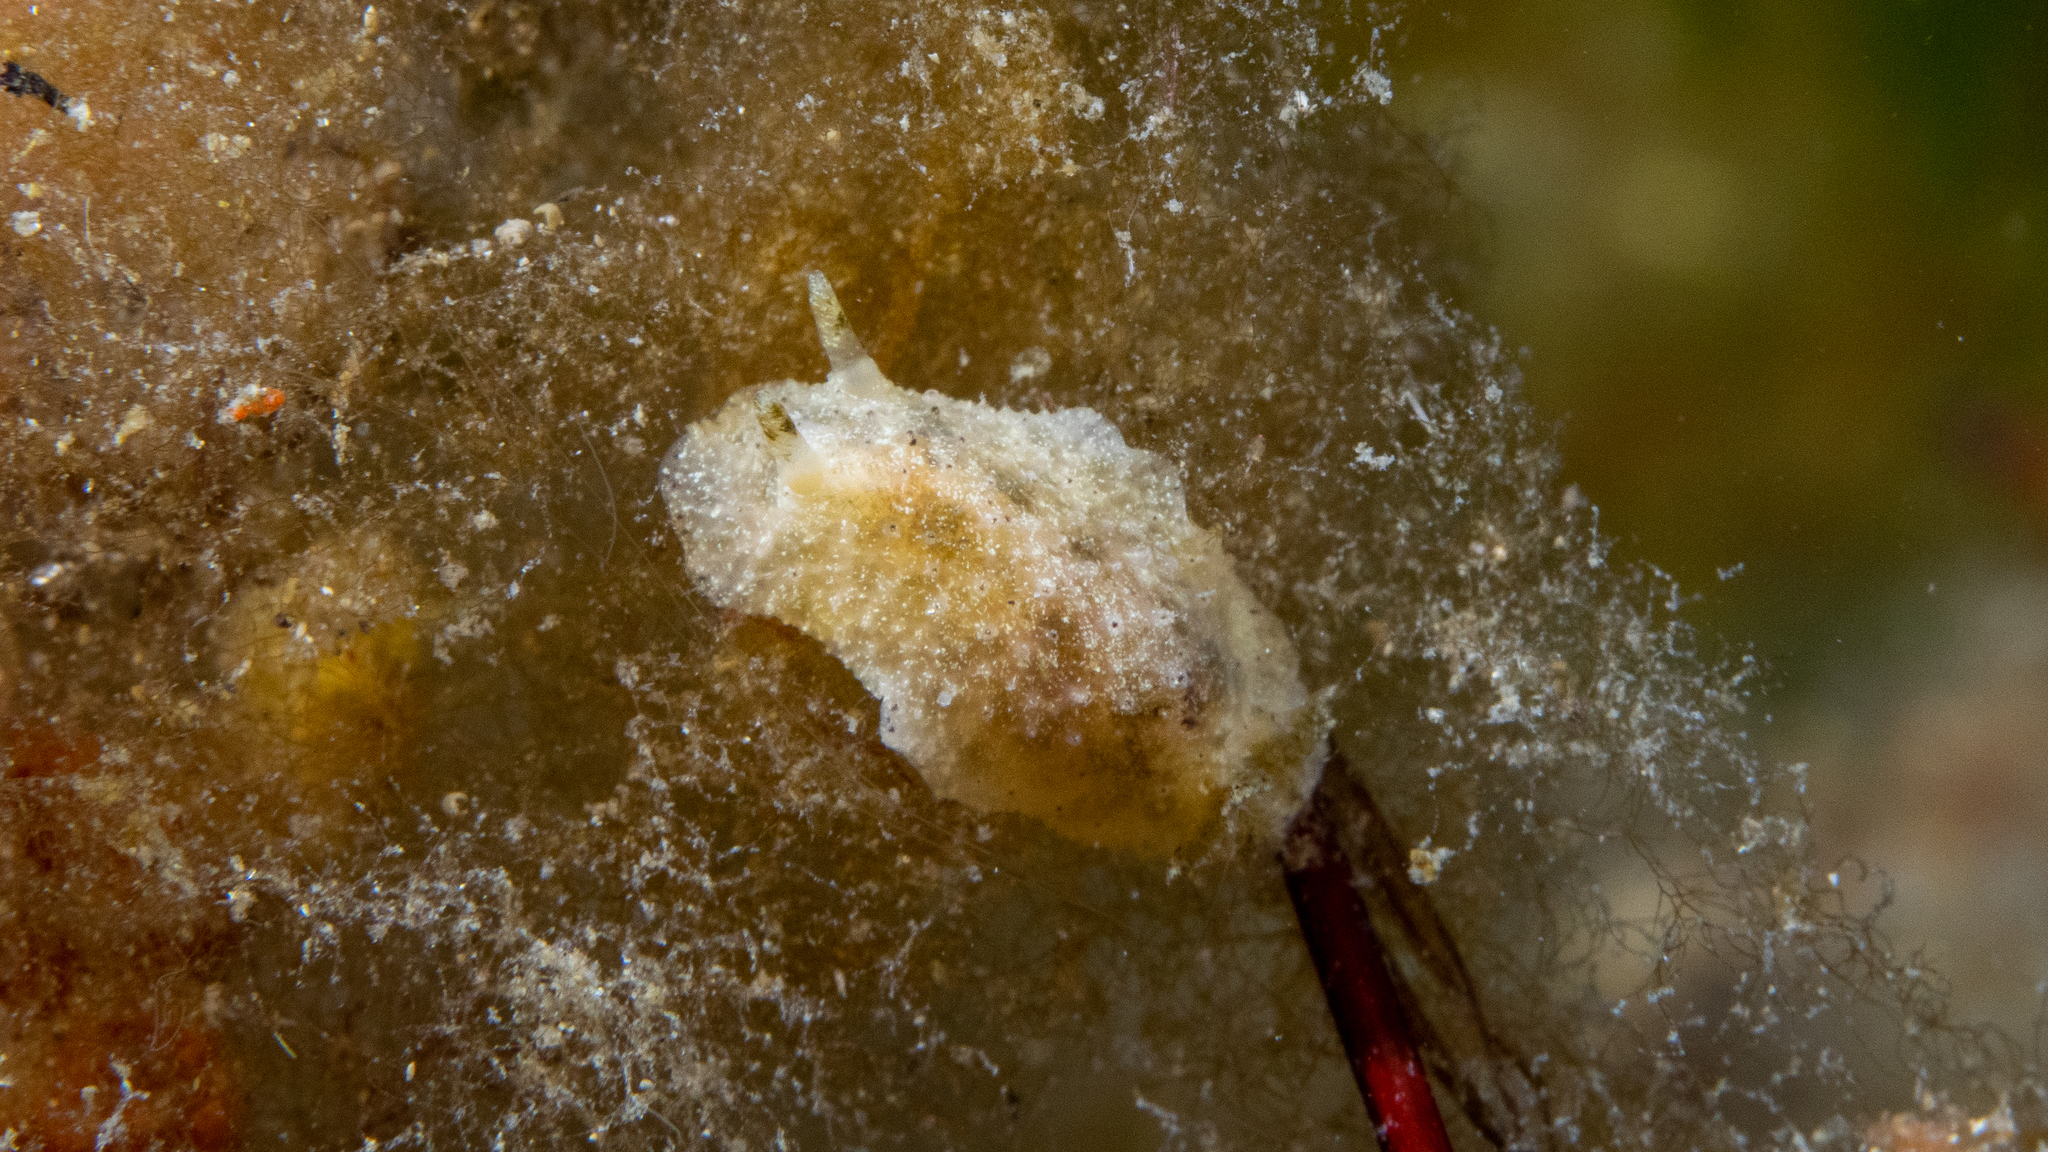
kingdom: Animalia
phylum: Mollusca
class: Gastropoda
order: Nudibranchia
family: Dorididae
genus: Doris
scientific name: Doris cameroni
